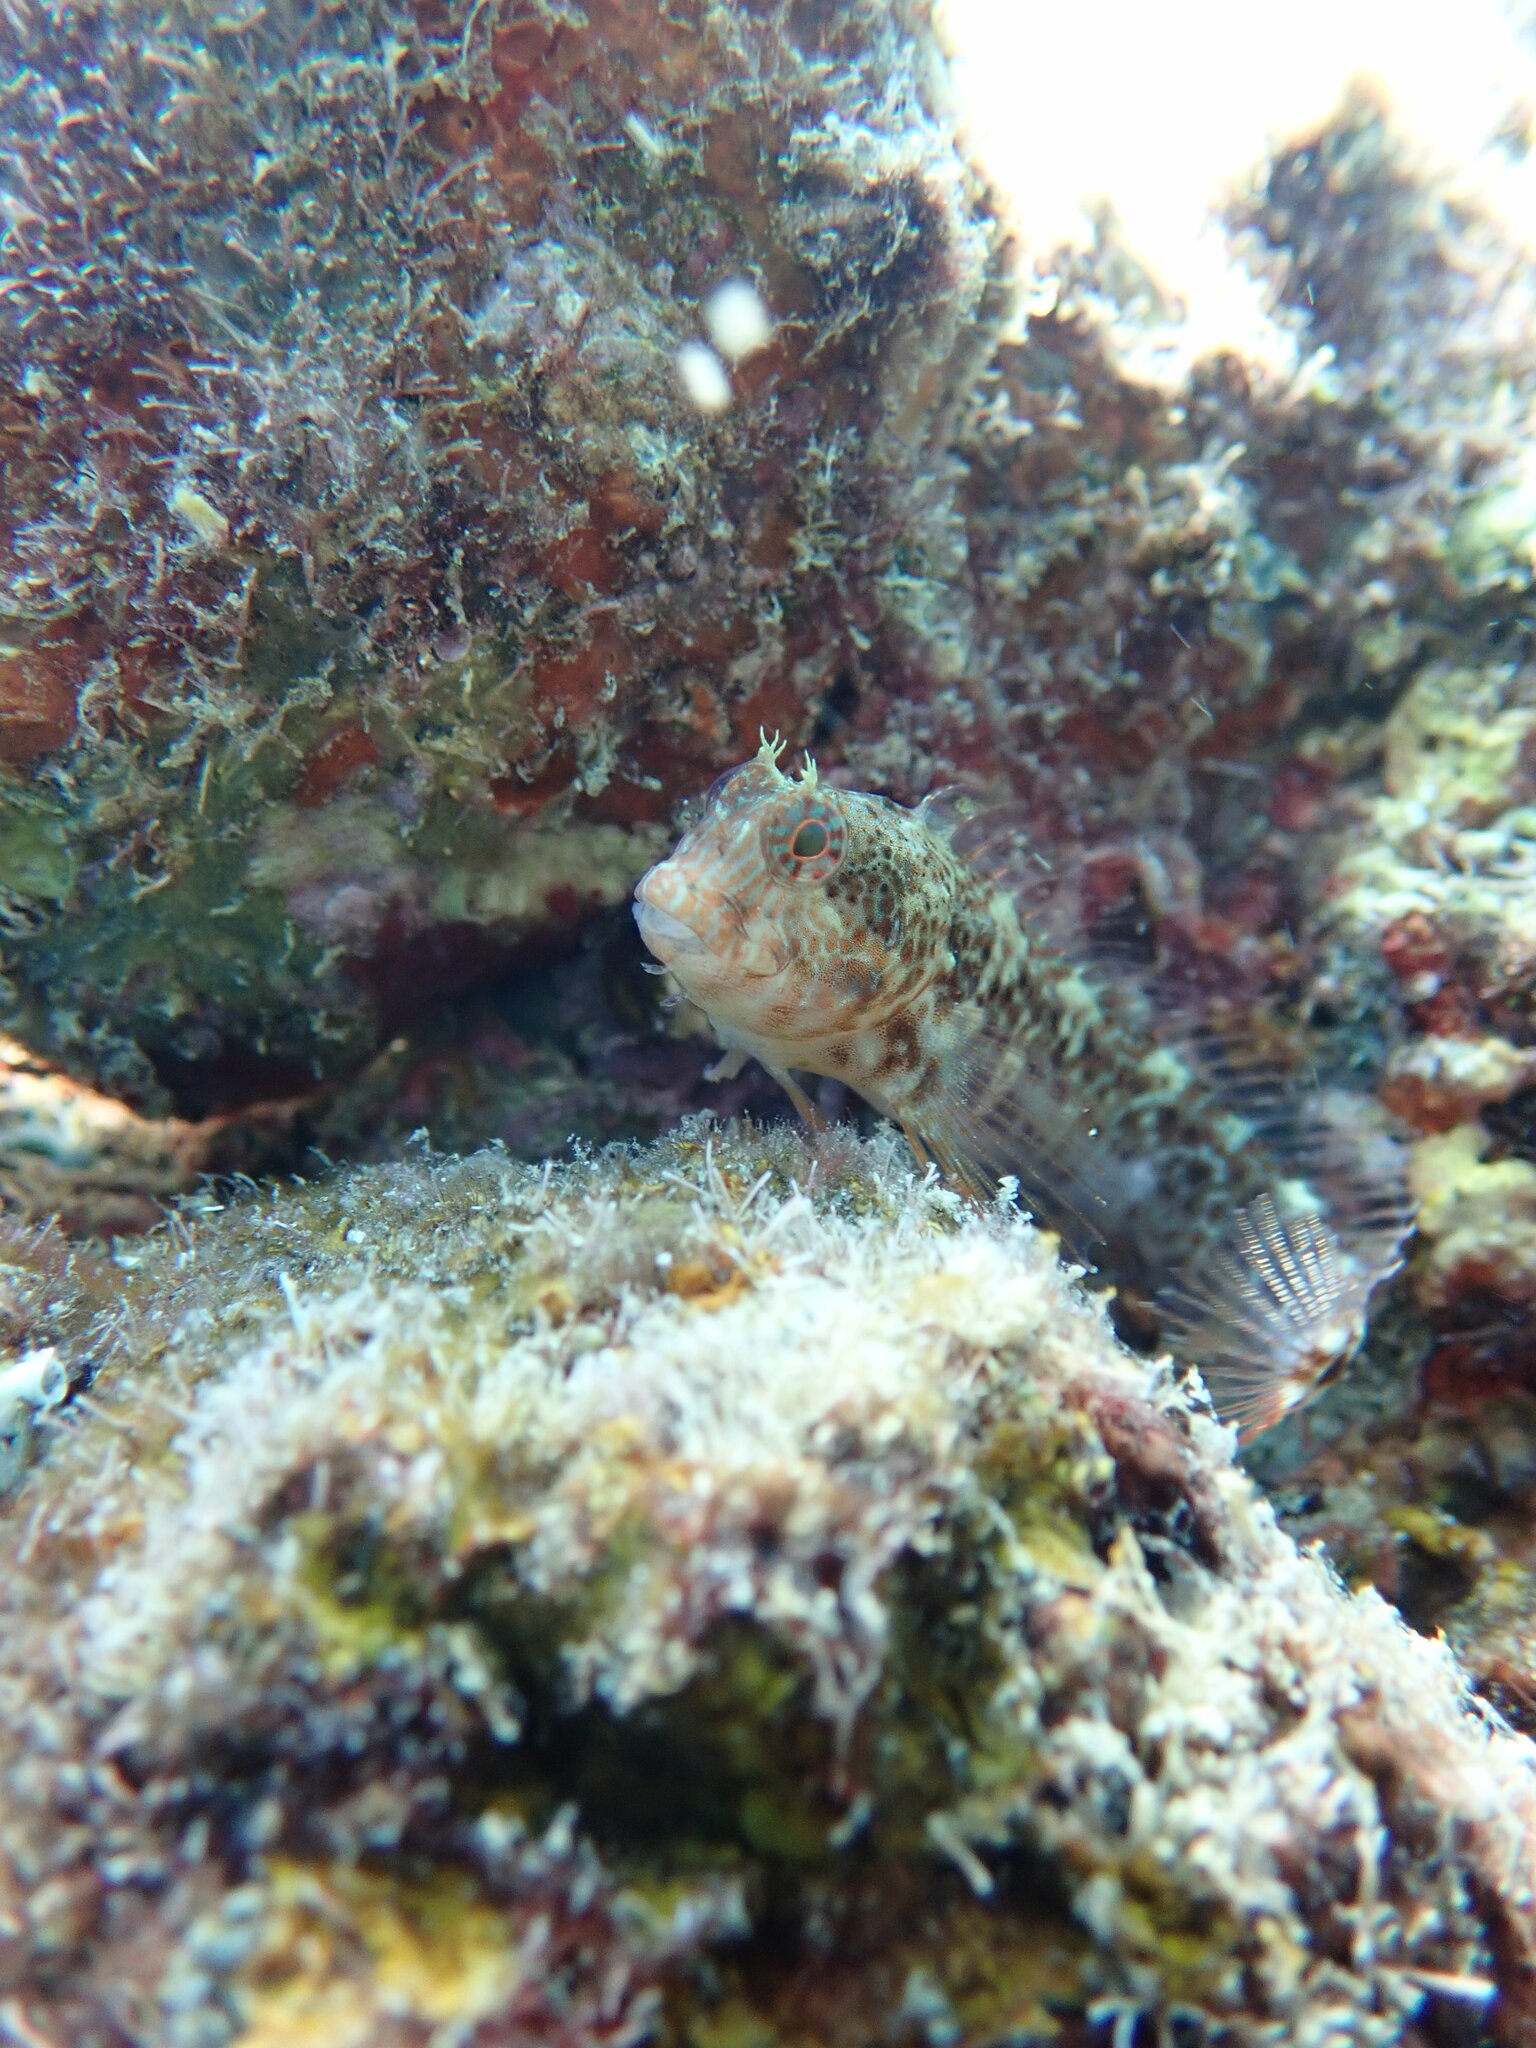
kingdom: Animalia
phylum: Chordata
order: Perciformes
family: Blenniidae
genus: Parablennius
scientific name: Parablennius zvonimiri
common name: Red blenny
